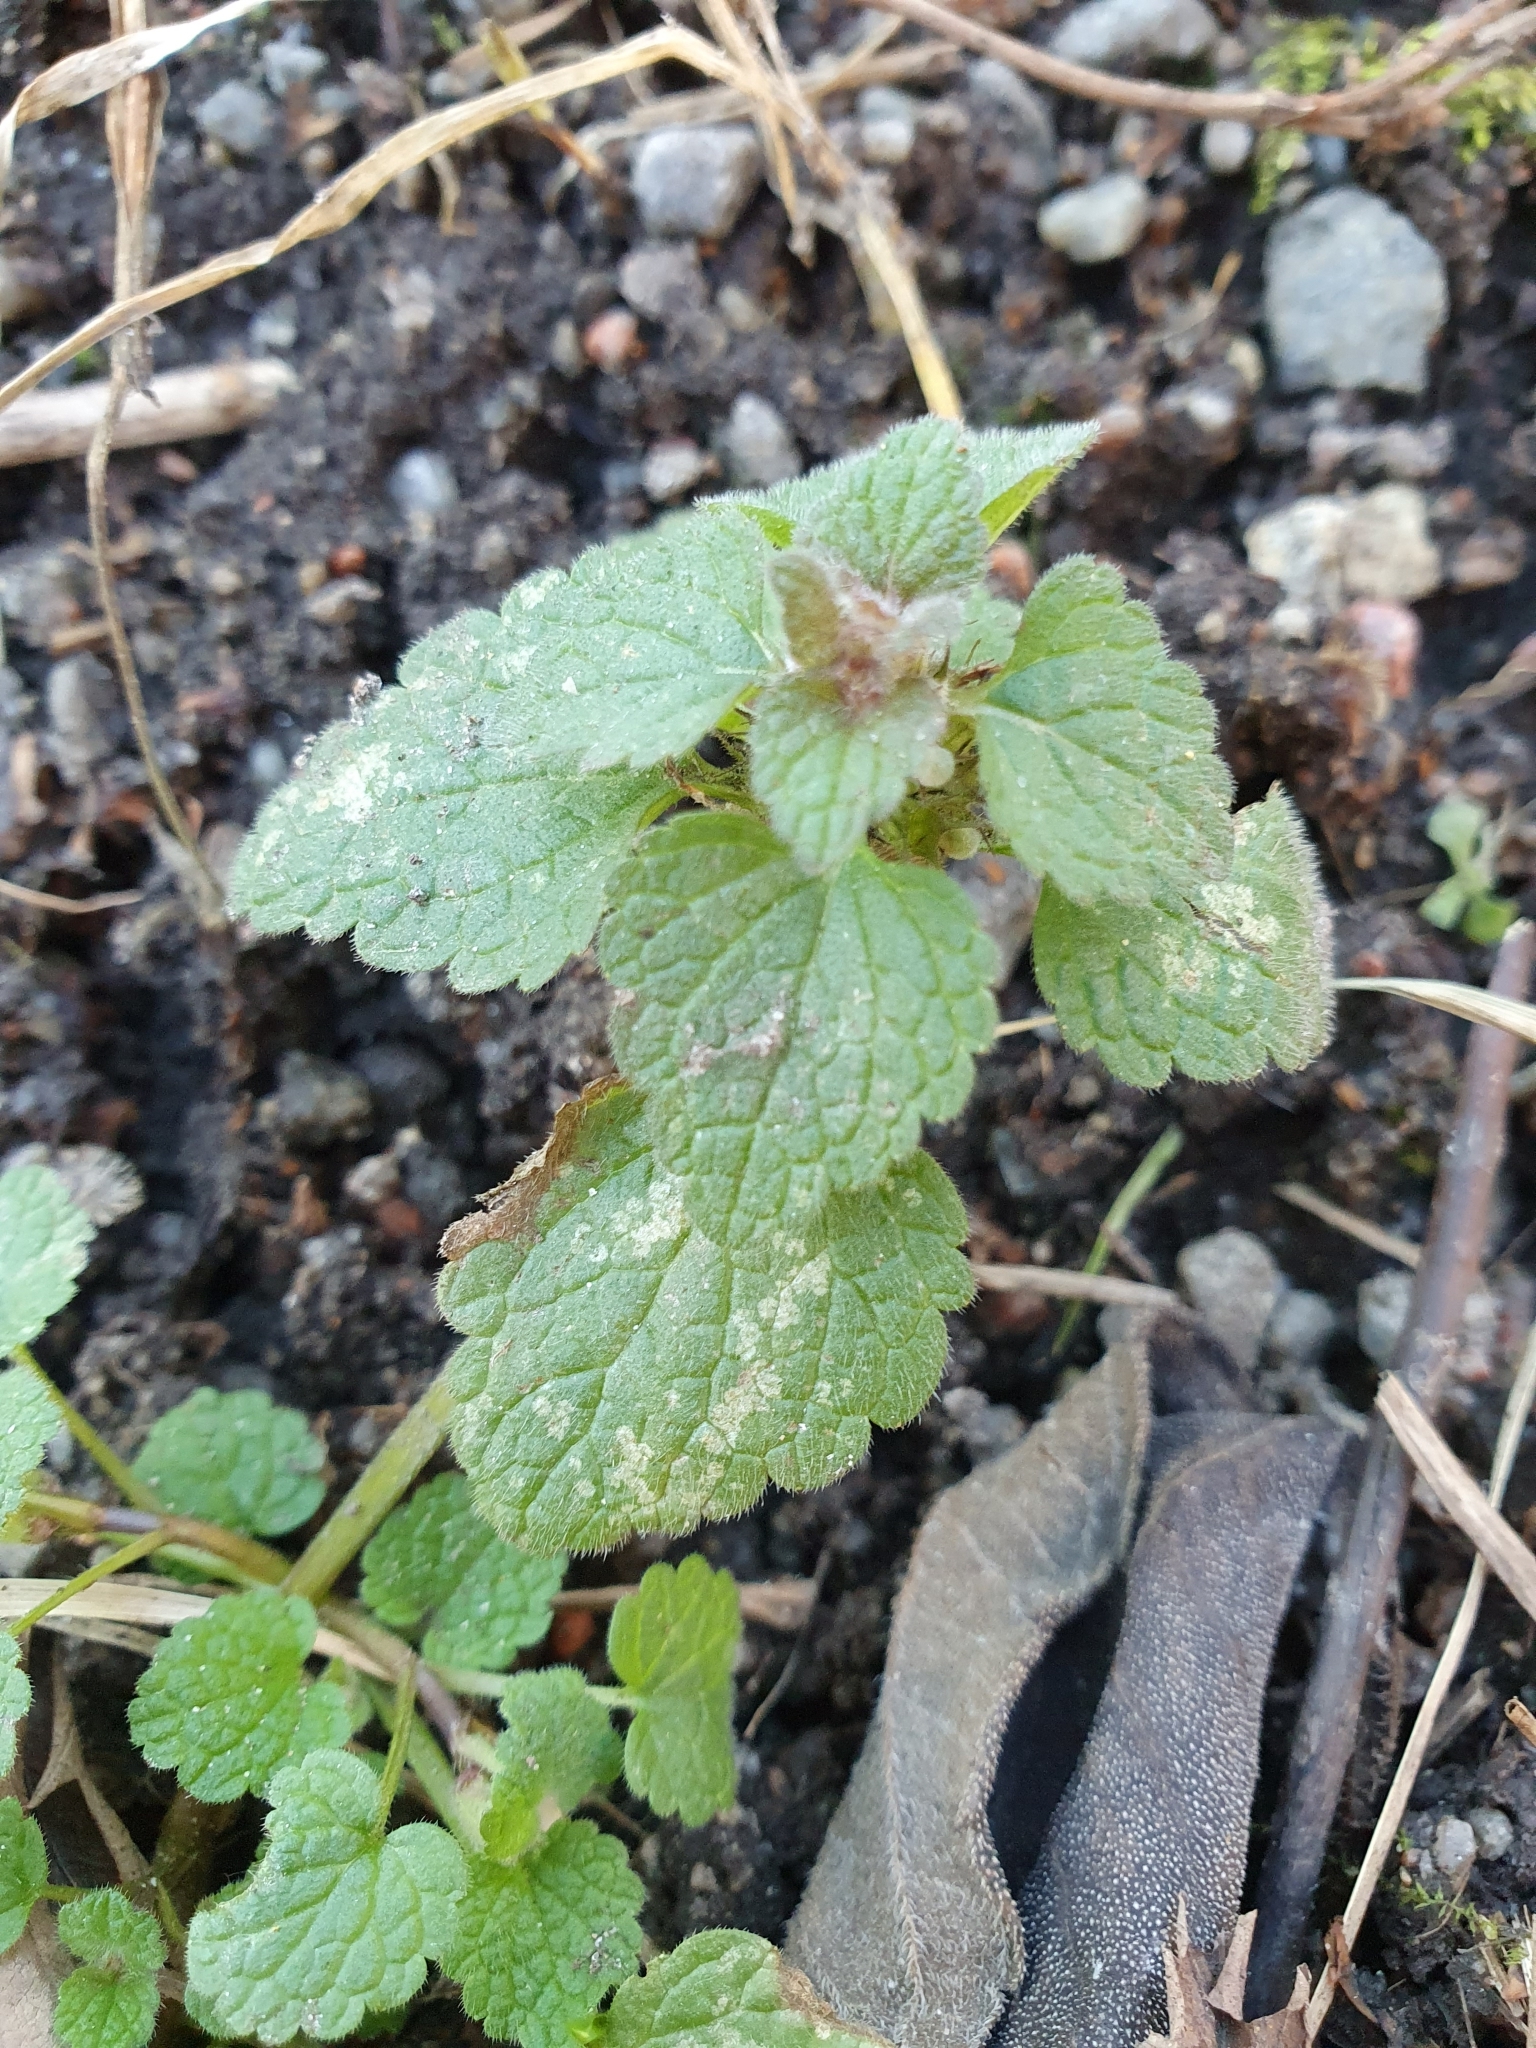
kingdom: Plantae
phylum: Tracheophyta
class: Magnoliopsida
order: Lamiales
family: Lamiaceae
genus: Lamium
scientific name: Lamium purpureum
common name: Red dead-nettle
